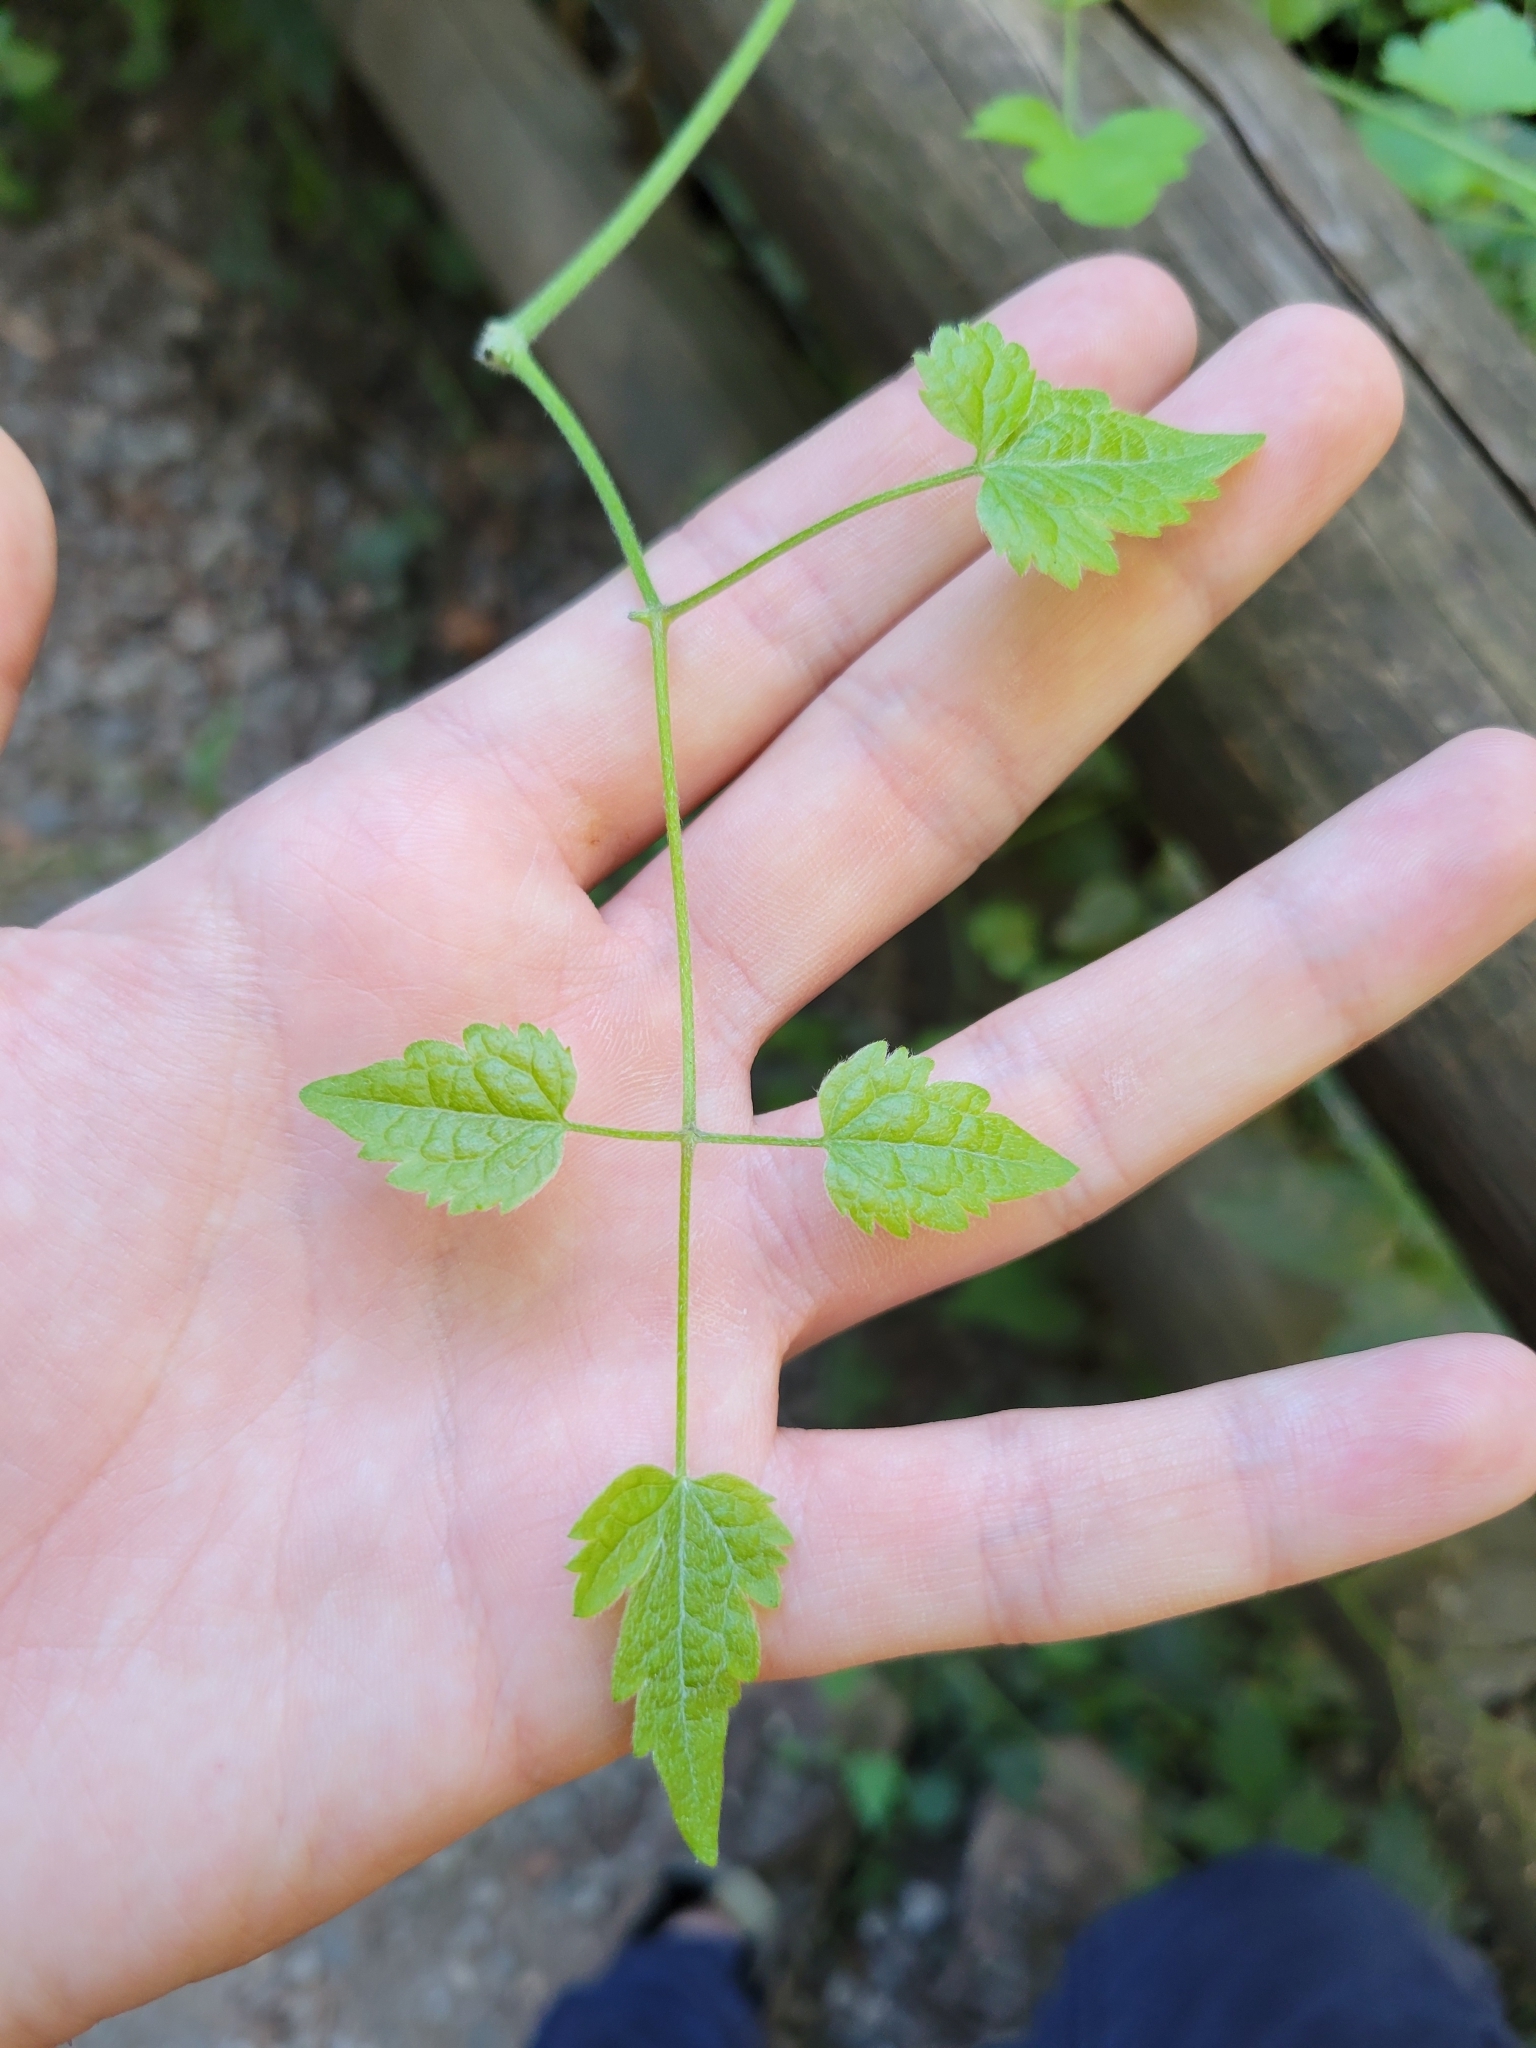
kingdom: Plantae
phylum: Tracheophyta
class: Magnoliopsida
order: Ranunculales
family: Ranunculaceae
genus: Clematis
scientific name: Clematis vitalba
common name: Evergreen clematis
